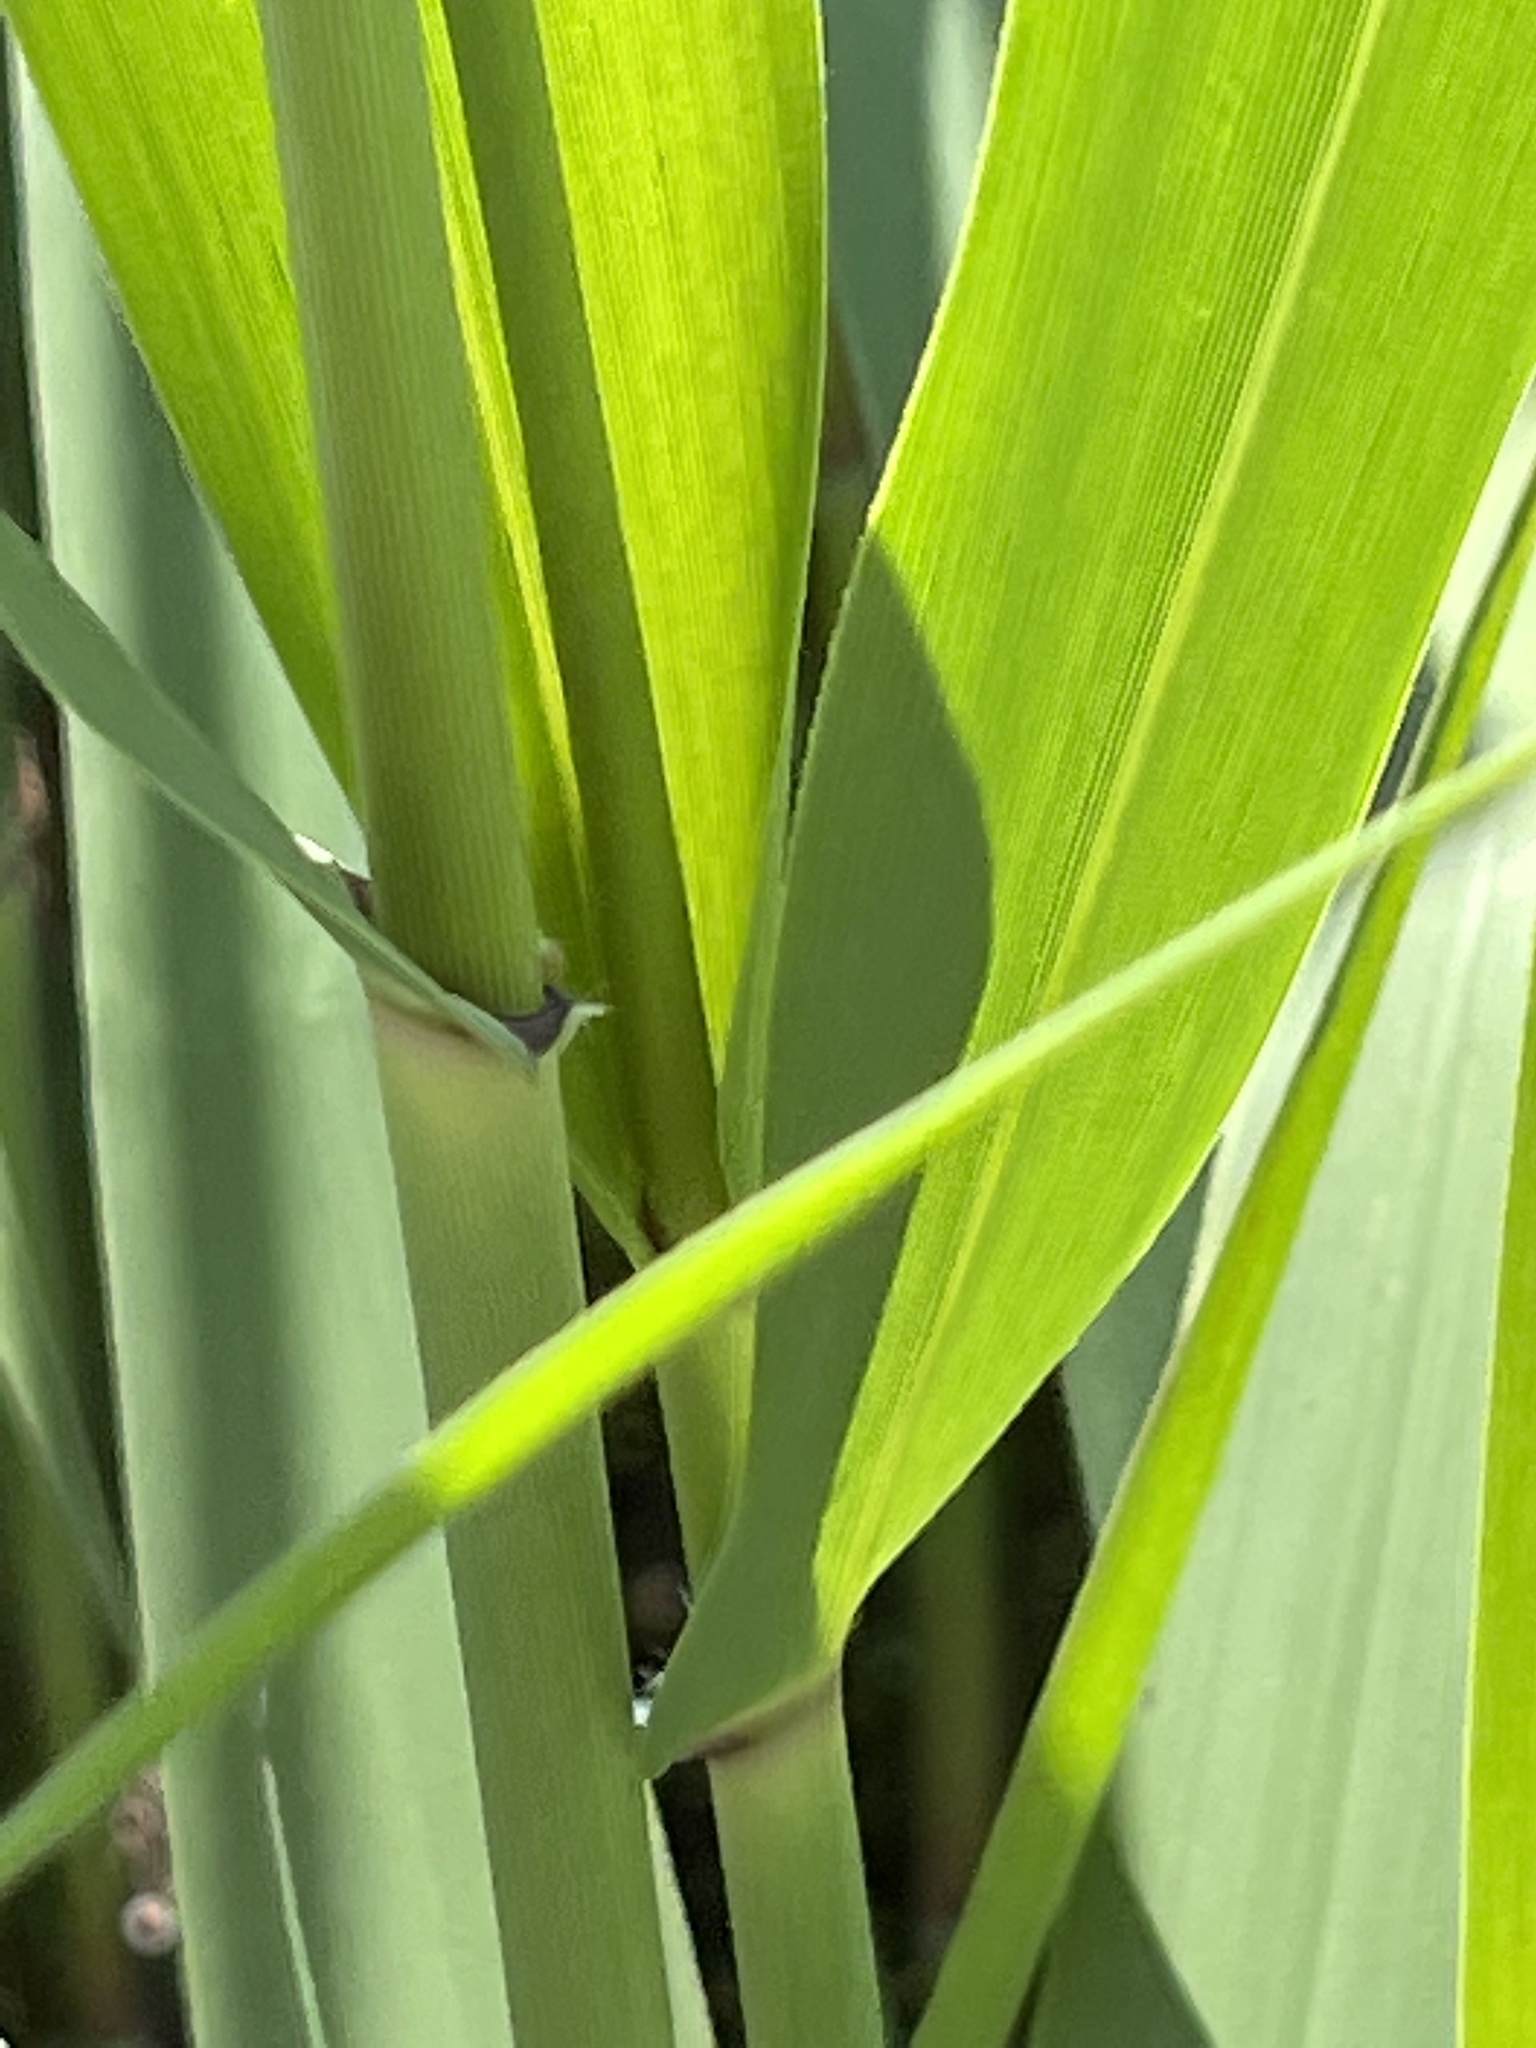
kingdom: Plantae
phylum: Tracheophyta
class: Liliopsida
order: Poales
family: Poaceae
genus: Phragmites
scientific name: Phragmites australis
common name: Common reed
